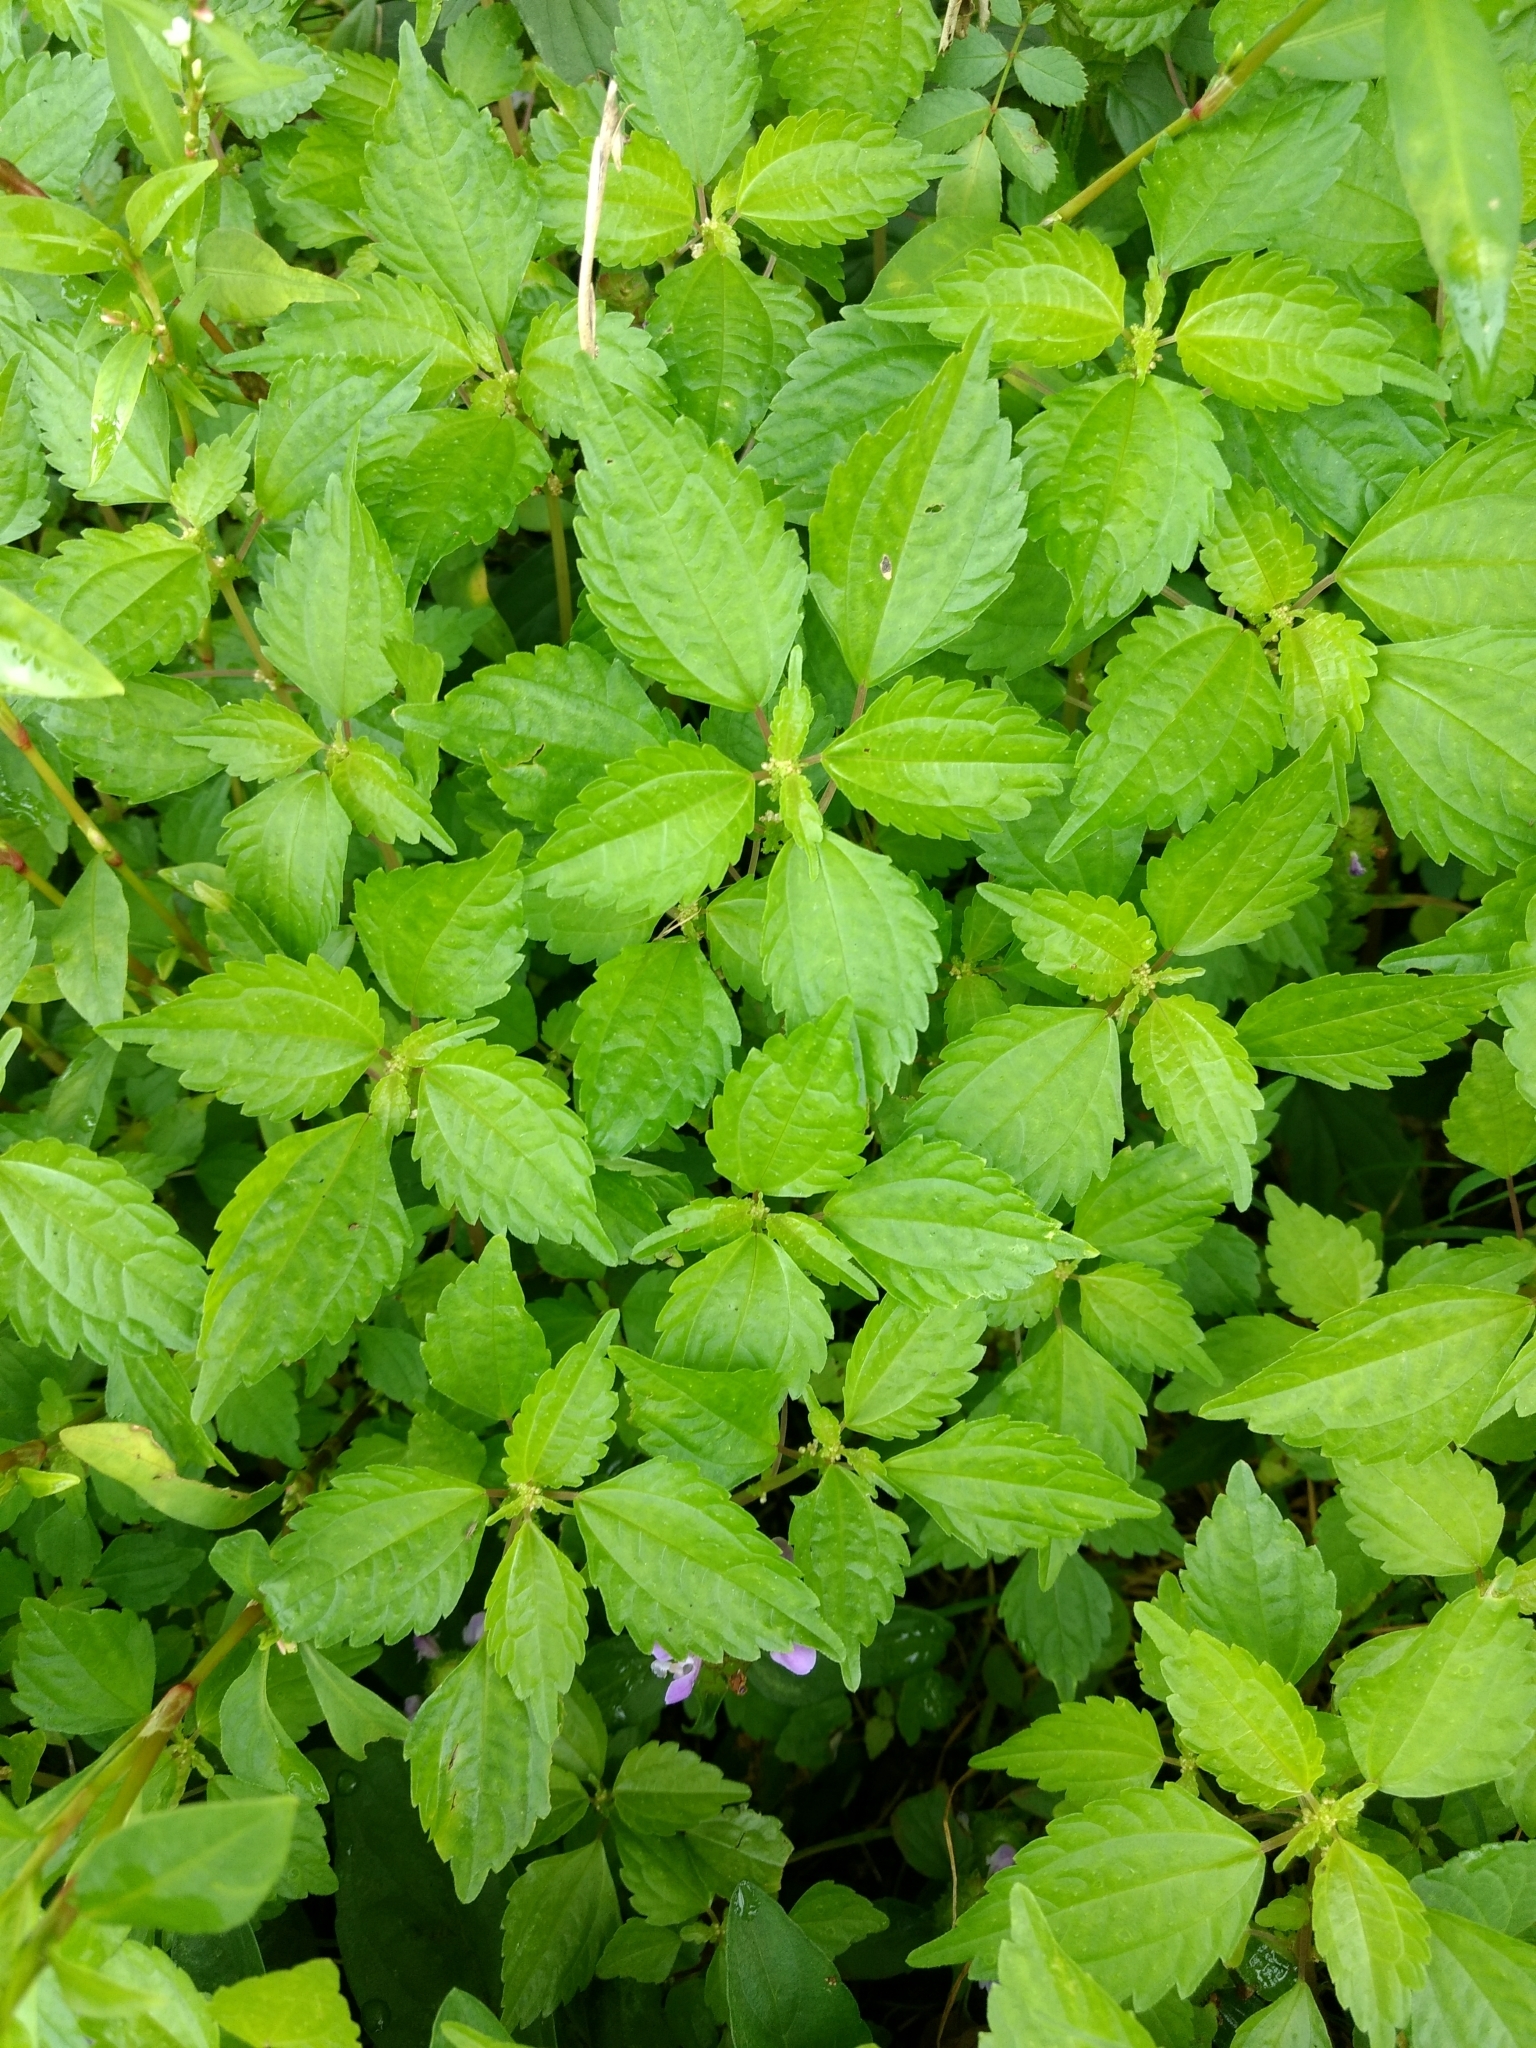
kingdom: Plantae
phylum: Tracheophyta
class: Magnoliopsida
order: Rosales
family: Urticaceae
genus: Pilea
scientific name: Pilea pumila
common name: Clearweed
